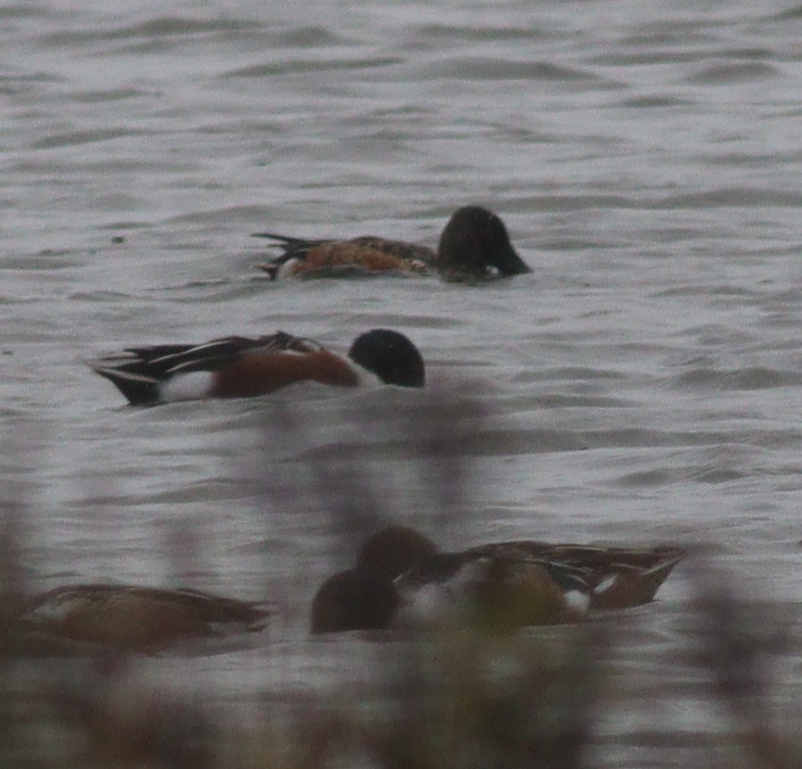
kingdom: Animalia
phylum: Chordata
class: Aves
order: Anseriformes
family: Anatidae
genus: Spatula
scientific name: Spatula clypeata
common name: Northern shoveler
